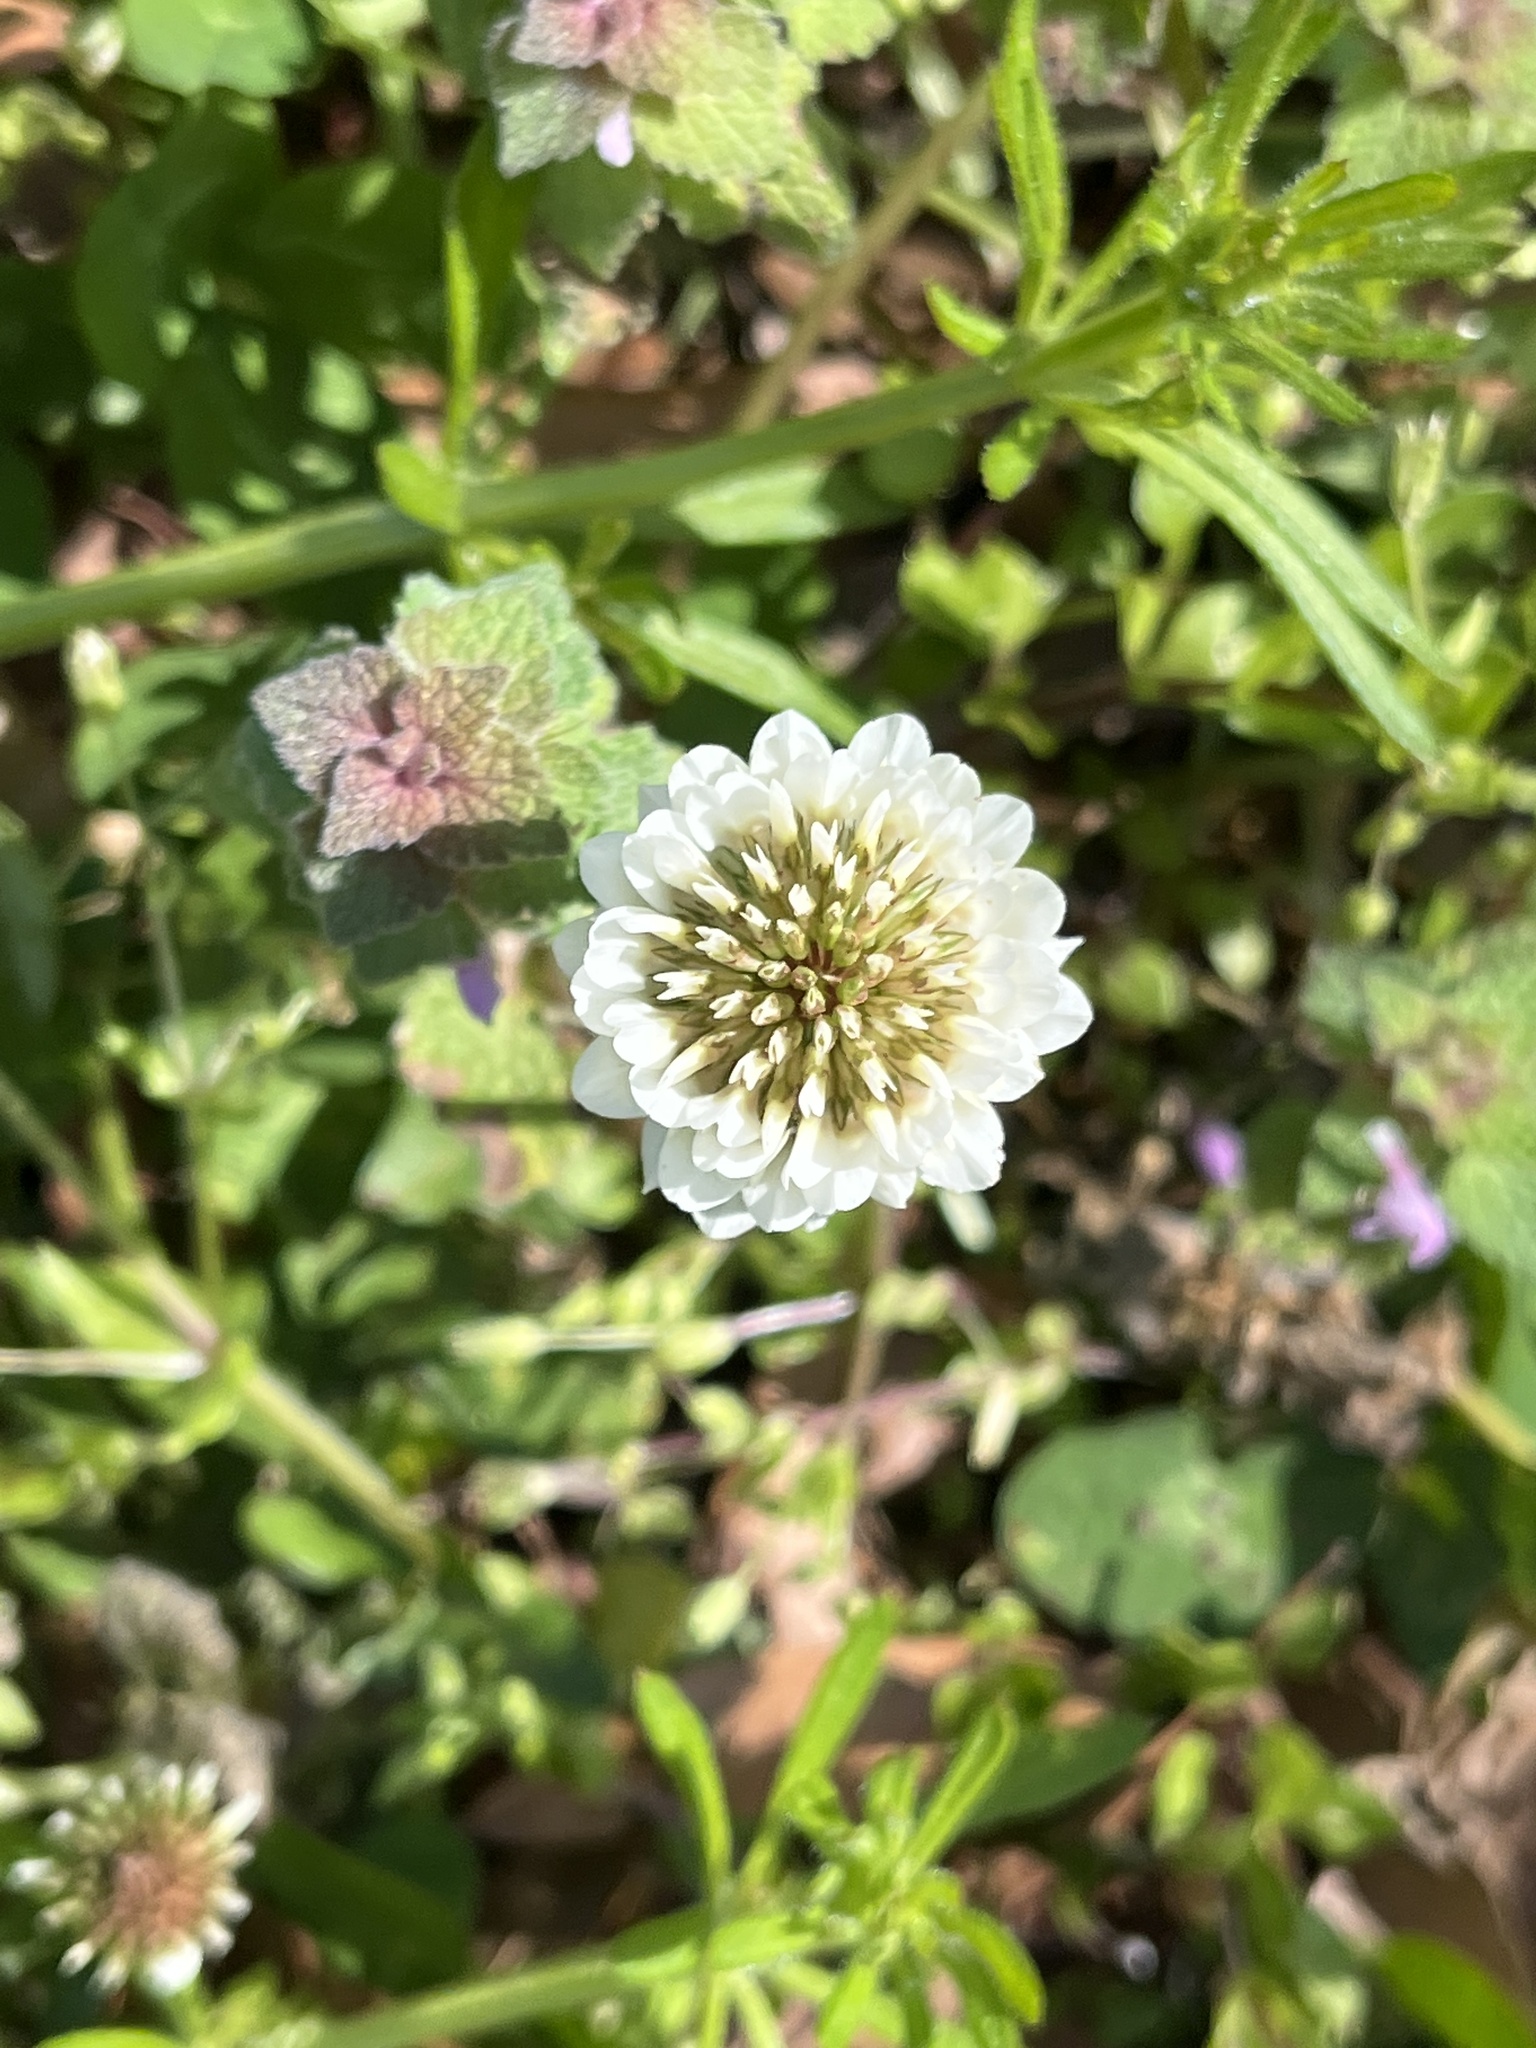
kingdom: Plantae
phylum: Tracheophyta
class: Magnoliopsida
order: Fabales
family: Fabaceae
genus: Trifolium
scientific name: Trifolium repens
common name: White clover
